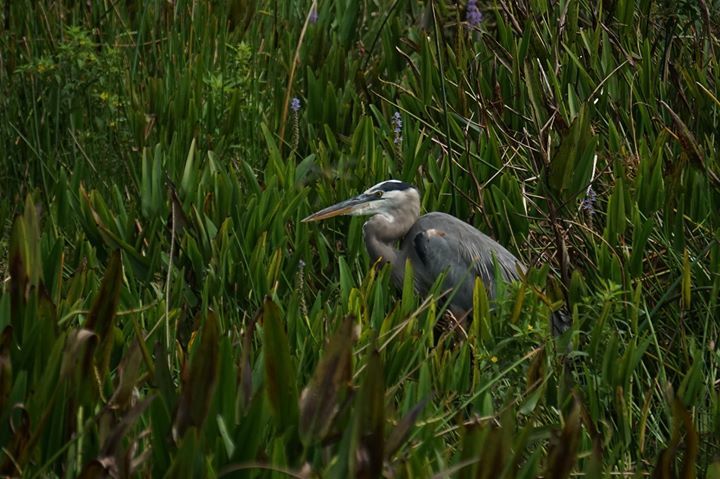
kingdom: Animalia
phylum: Chordata
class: Aves
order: Pelecaniformes
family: Ardeidae
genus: Ardea
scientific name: Ardea herodias
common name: Great blue heron
